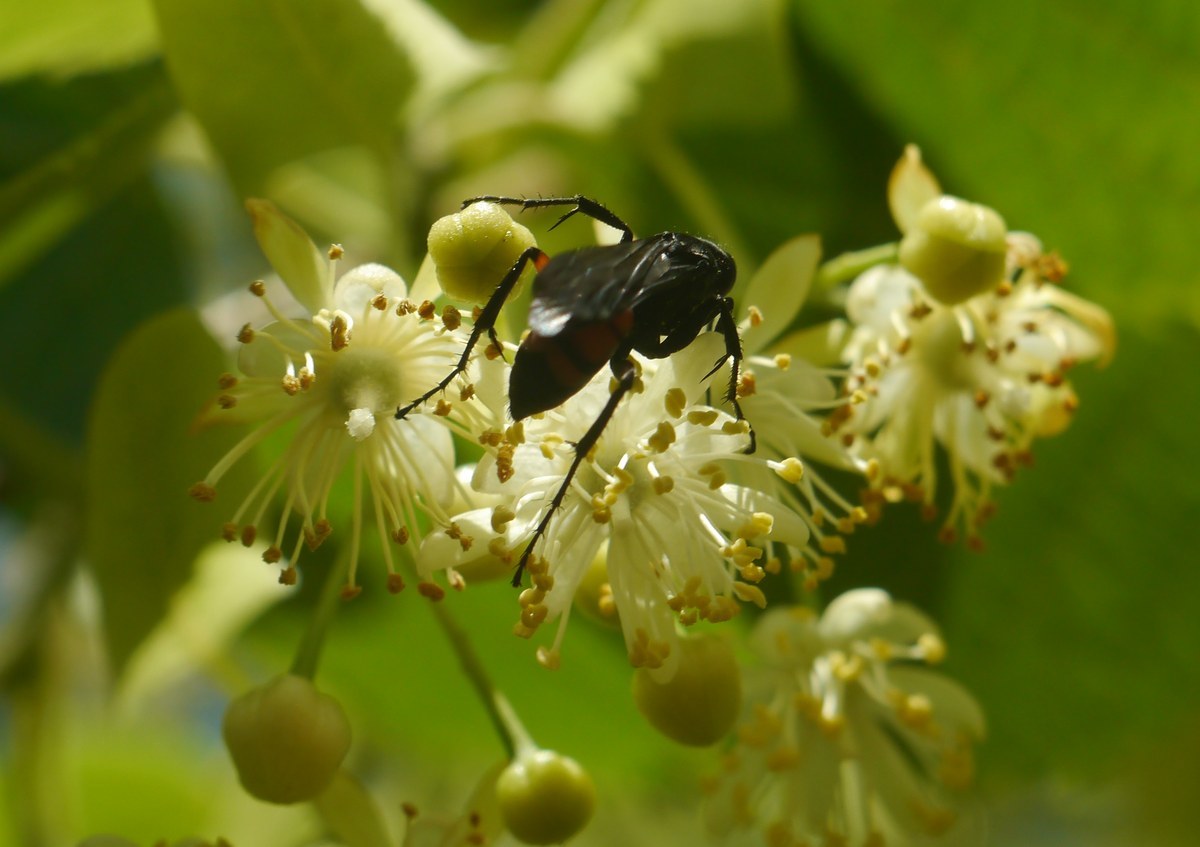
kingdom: Animalia
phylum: Arthropoda
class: Insecta
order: Hymenoptera
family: Pompilidae
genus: Anoplius
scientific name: Anoplius viaticus
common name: Black banded spider wasp
